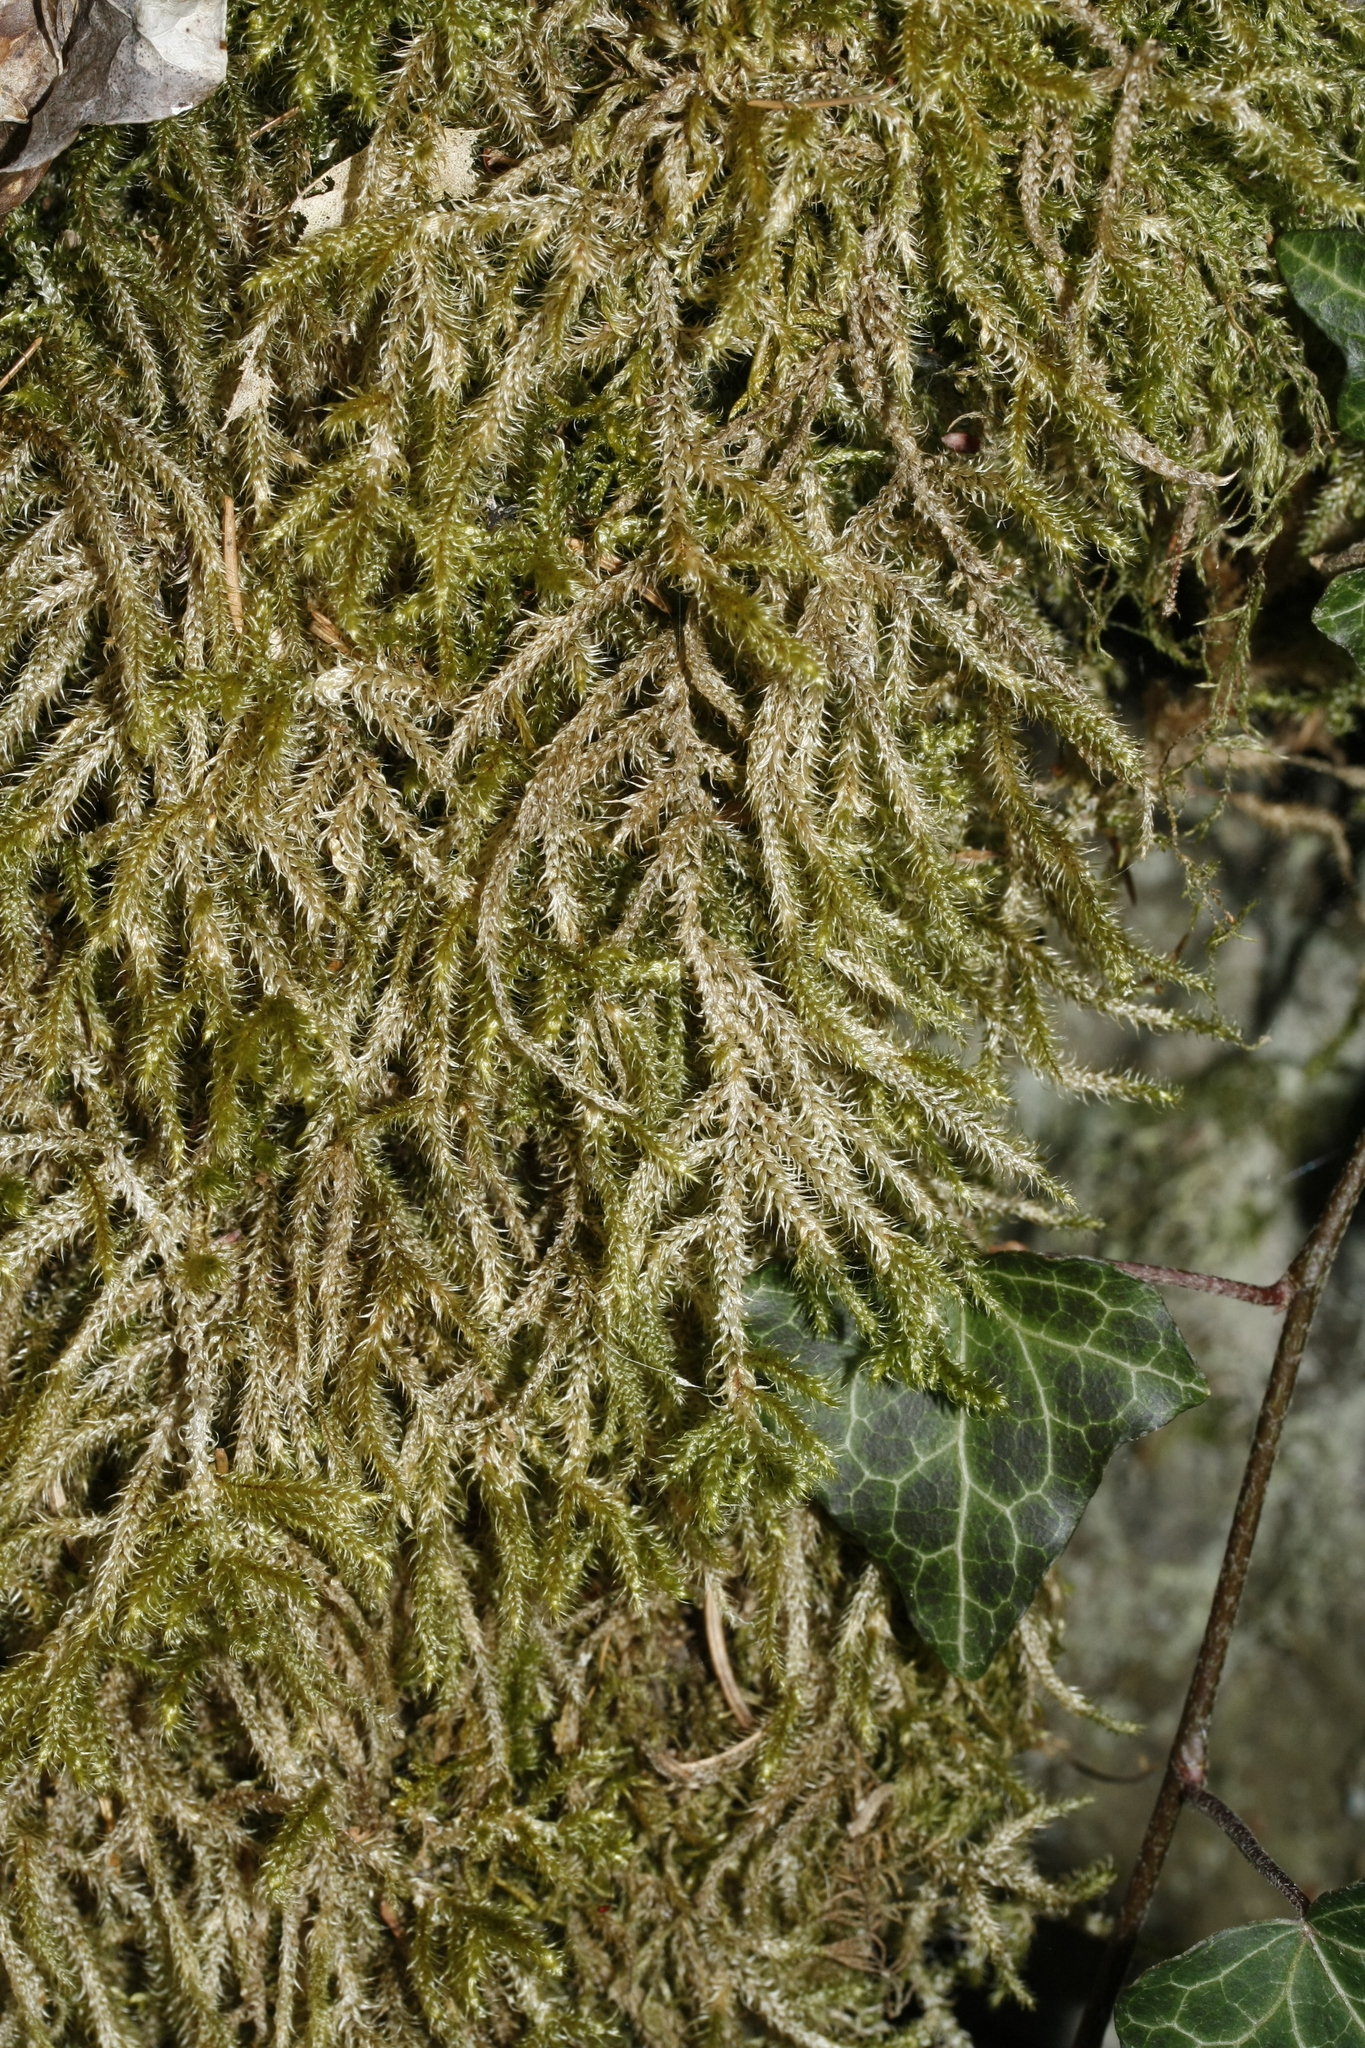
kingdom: Plantae
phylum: Bryophyta
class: Bryopsida
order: Hypnales
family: Hylocomiaceae
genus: Rhytidiadelphus
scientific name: Rhytidiadelphus loreus
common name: Lanky moss
